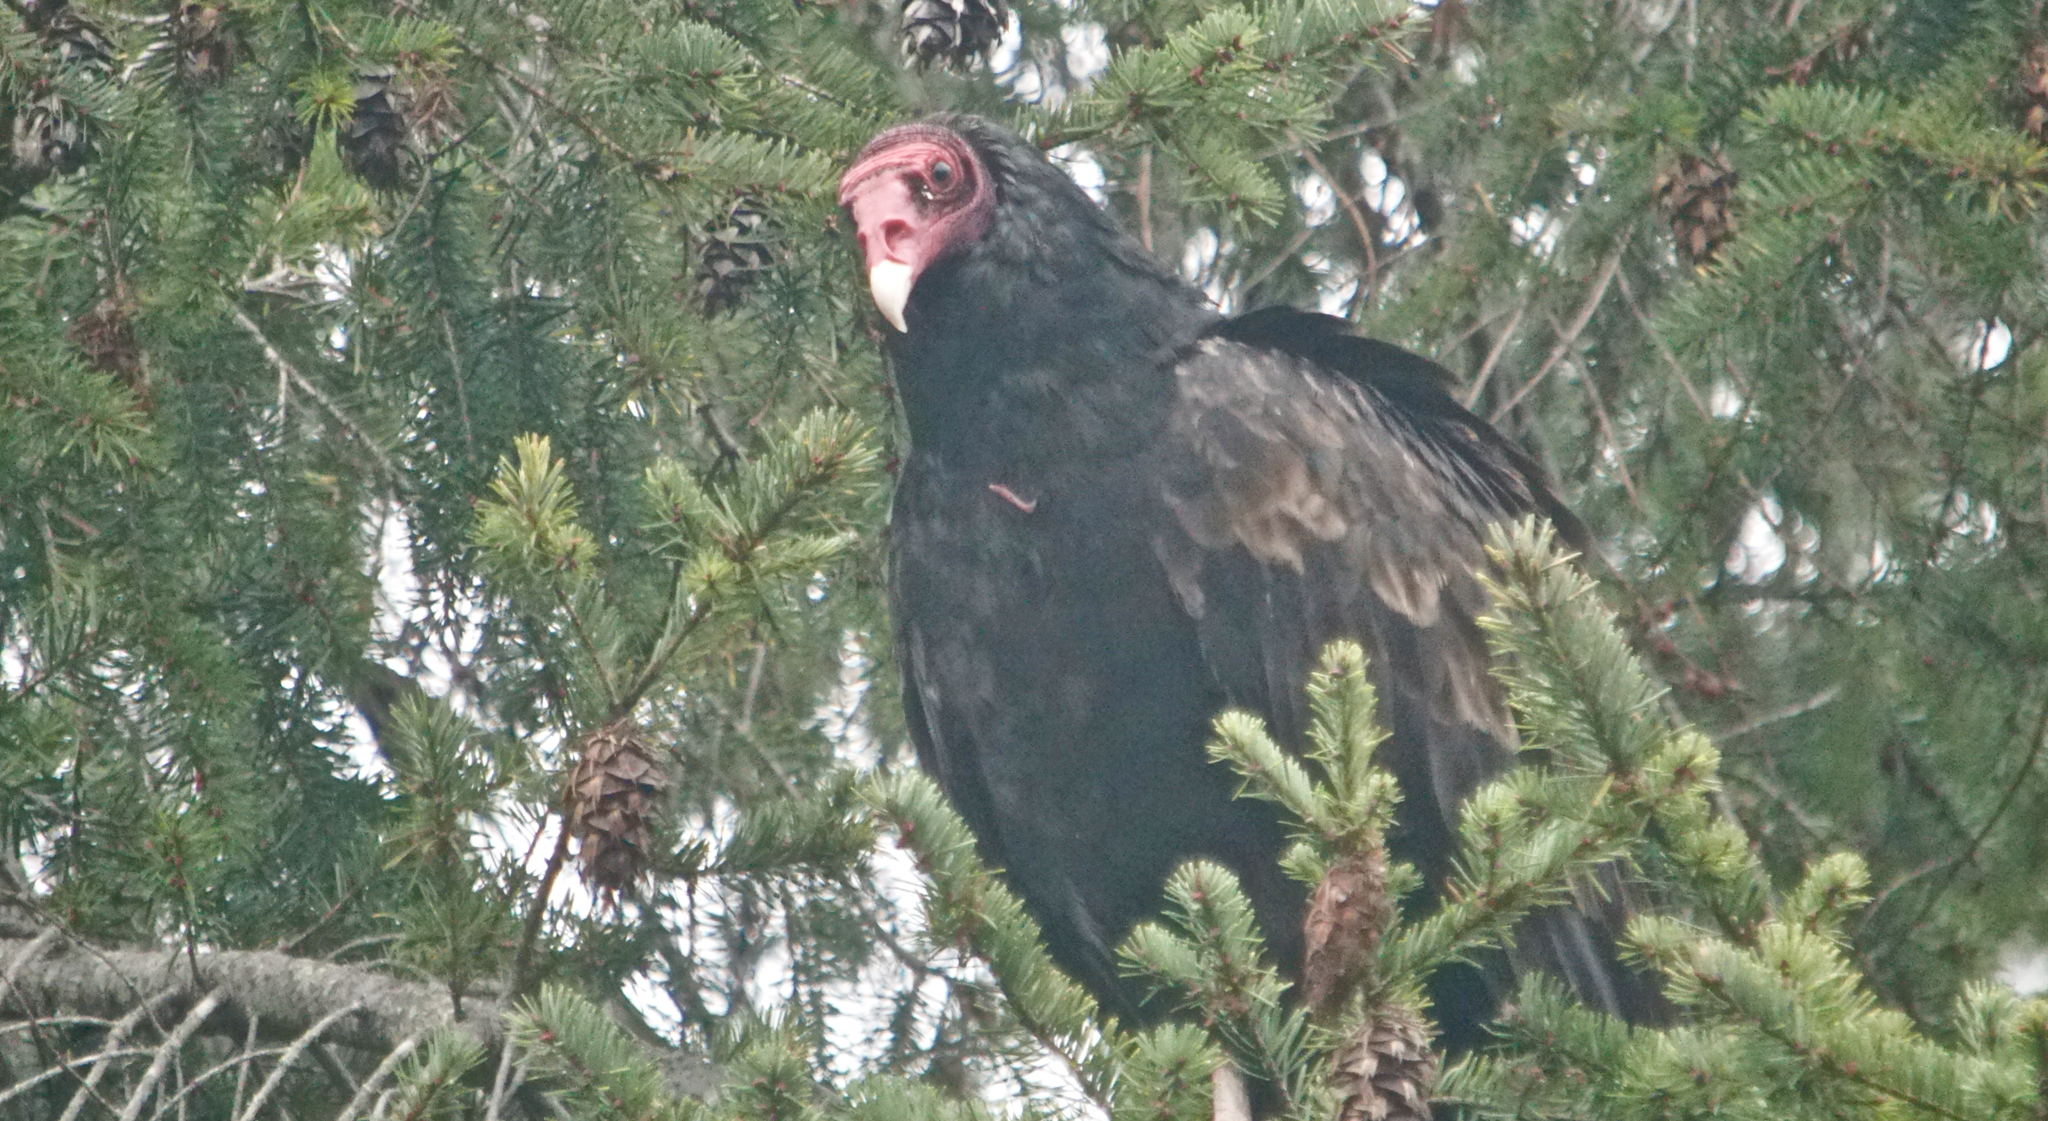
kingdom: Animalia
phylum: Chordata
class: Aves
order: Accipitriformes
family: Cathartidae
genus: Cathartes
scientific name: Cathartes aura
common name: Turkey vulture
